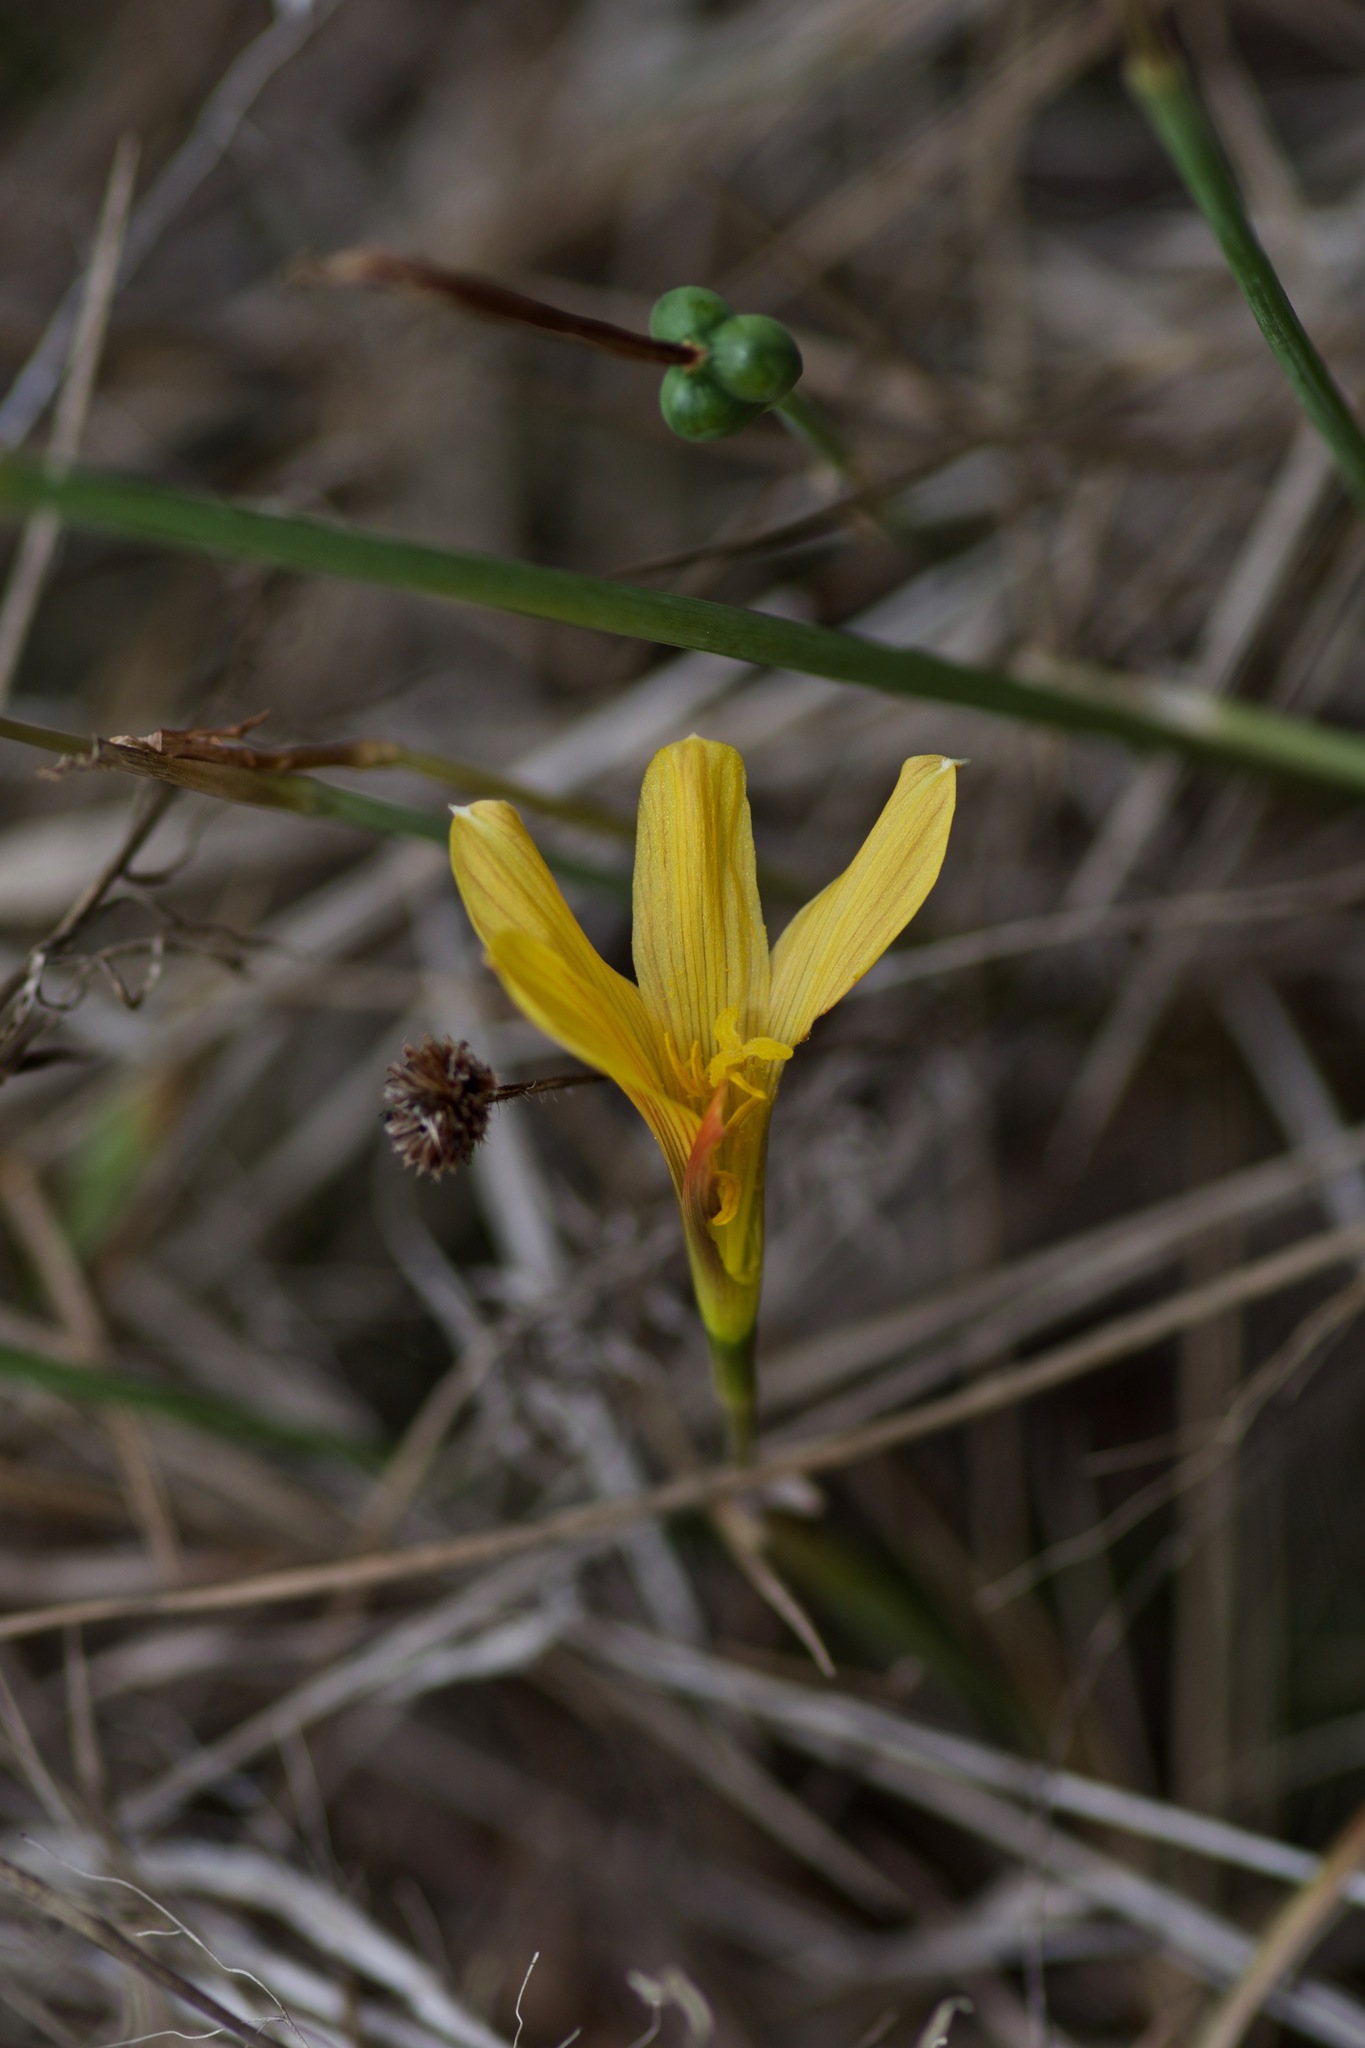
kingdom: Plantae
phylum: Tracheophyta
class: Liliopsida
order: Asparagales
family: Amaryllidaceae
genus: Zephyranthes
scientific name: Zephyranthes tubispatha
